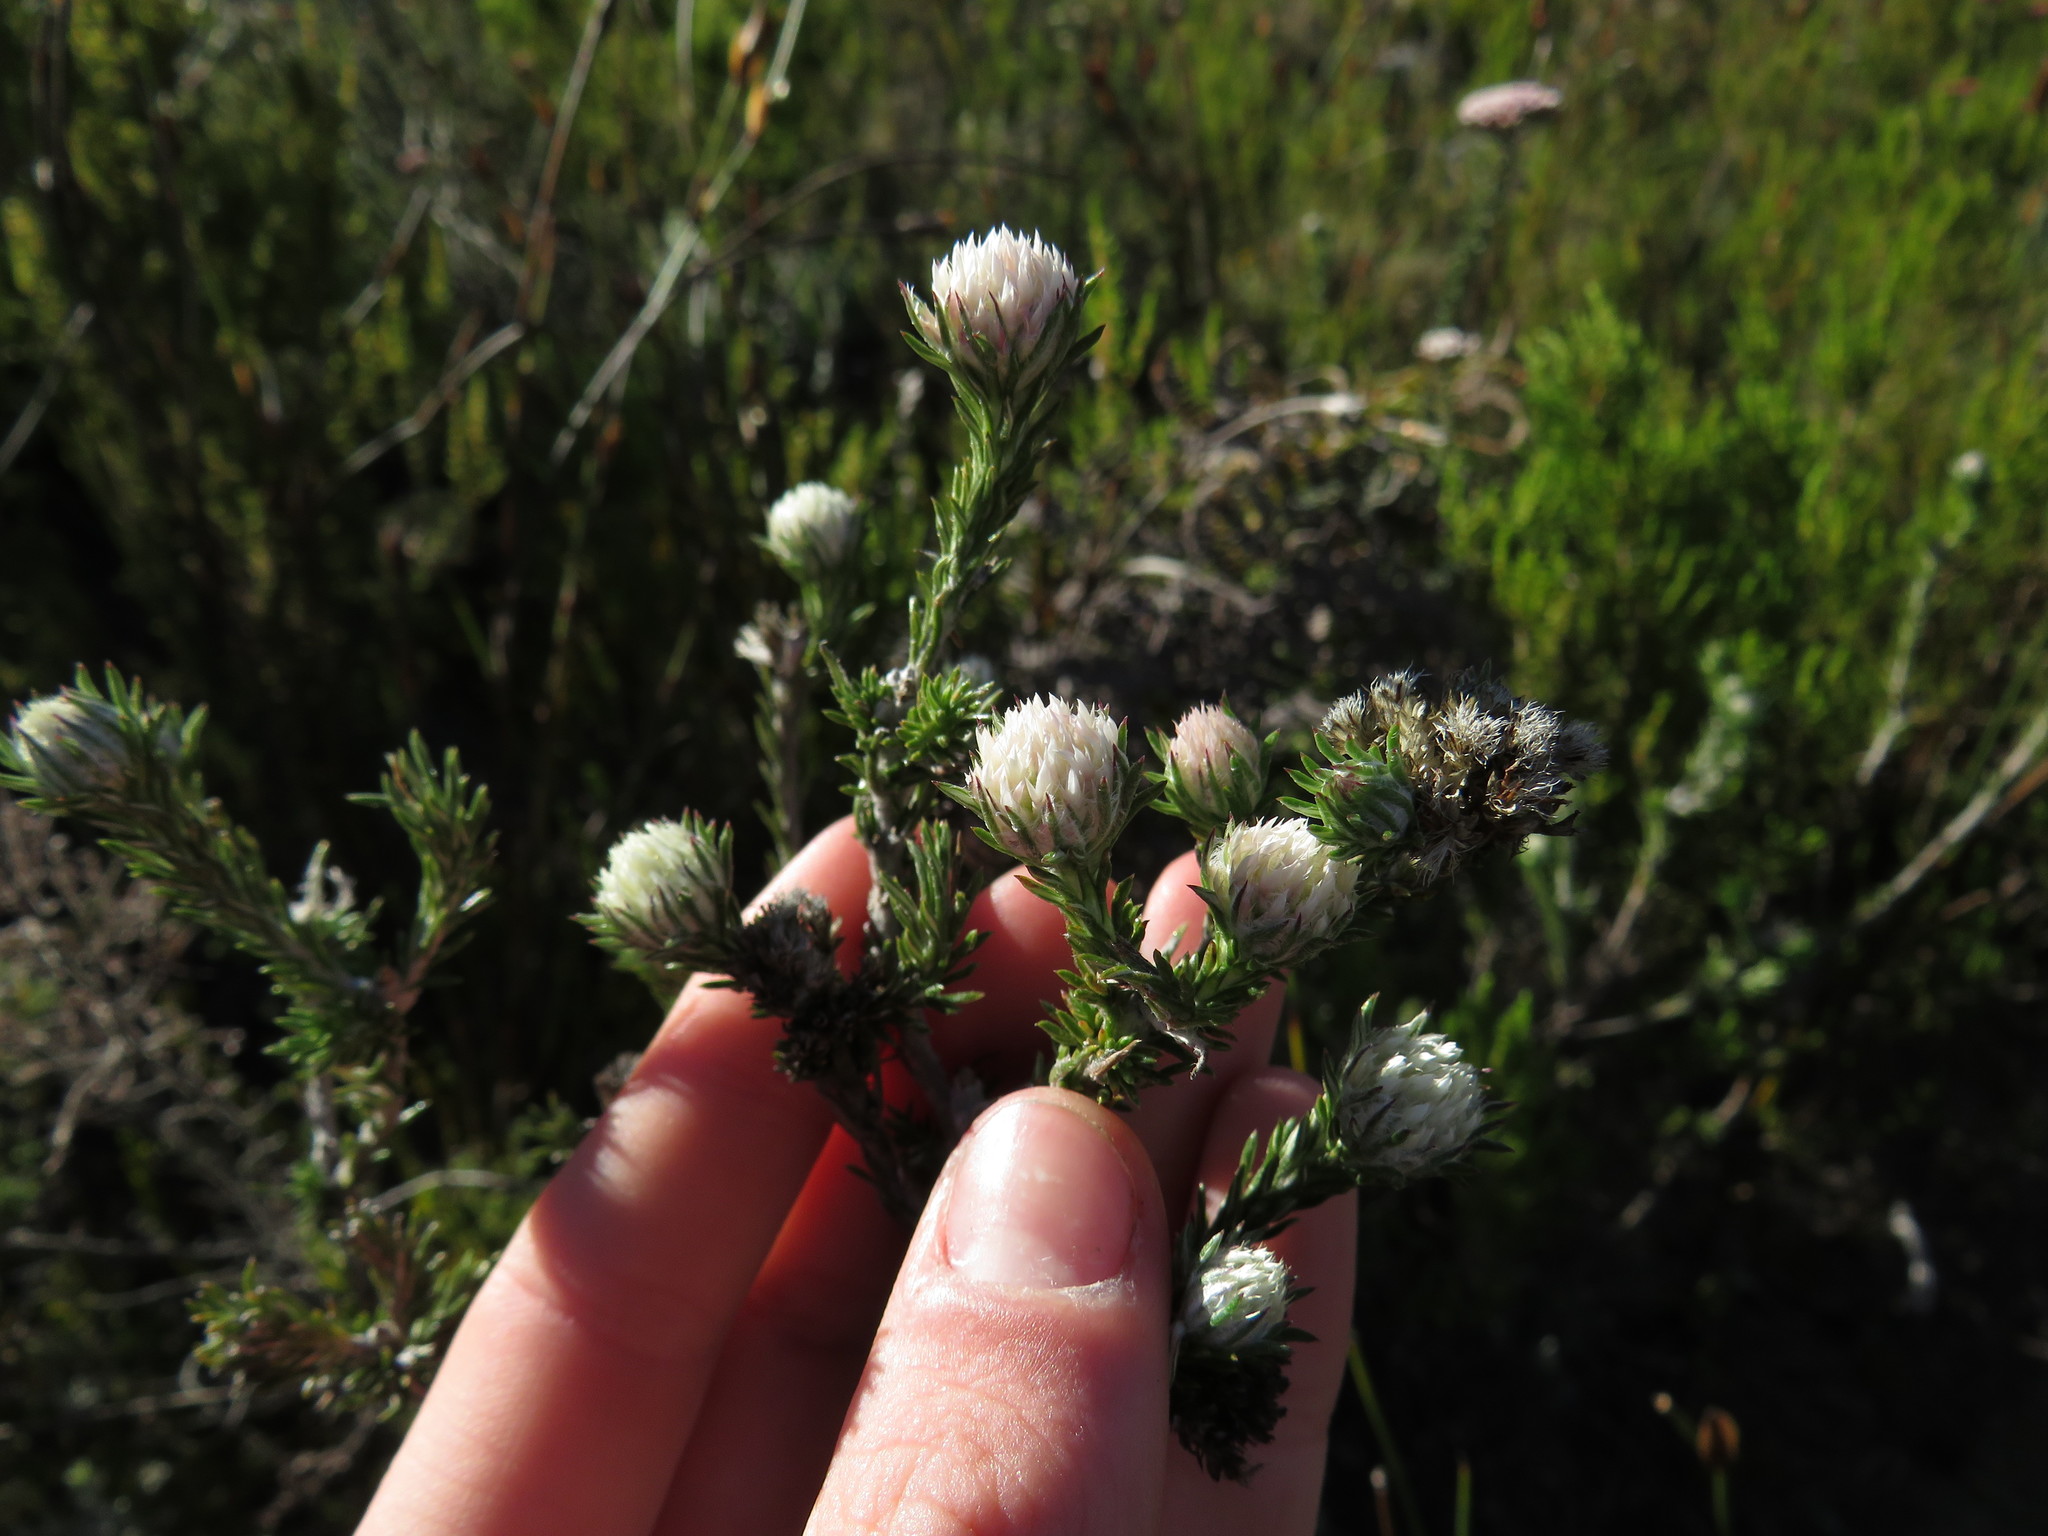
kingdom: Plantae
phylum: Tracheophyta
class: Magnoliopsida
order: Asterales
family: Asteraceae
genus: Metalasia
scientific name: Metalasia compacta
